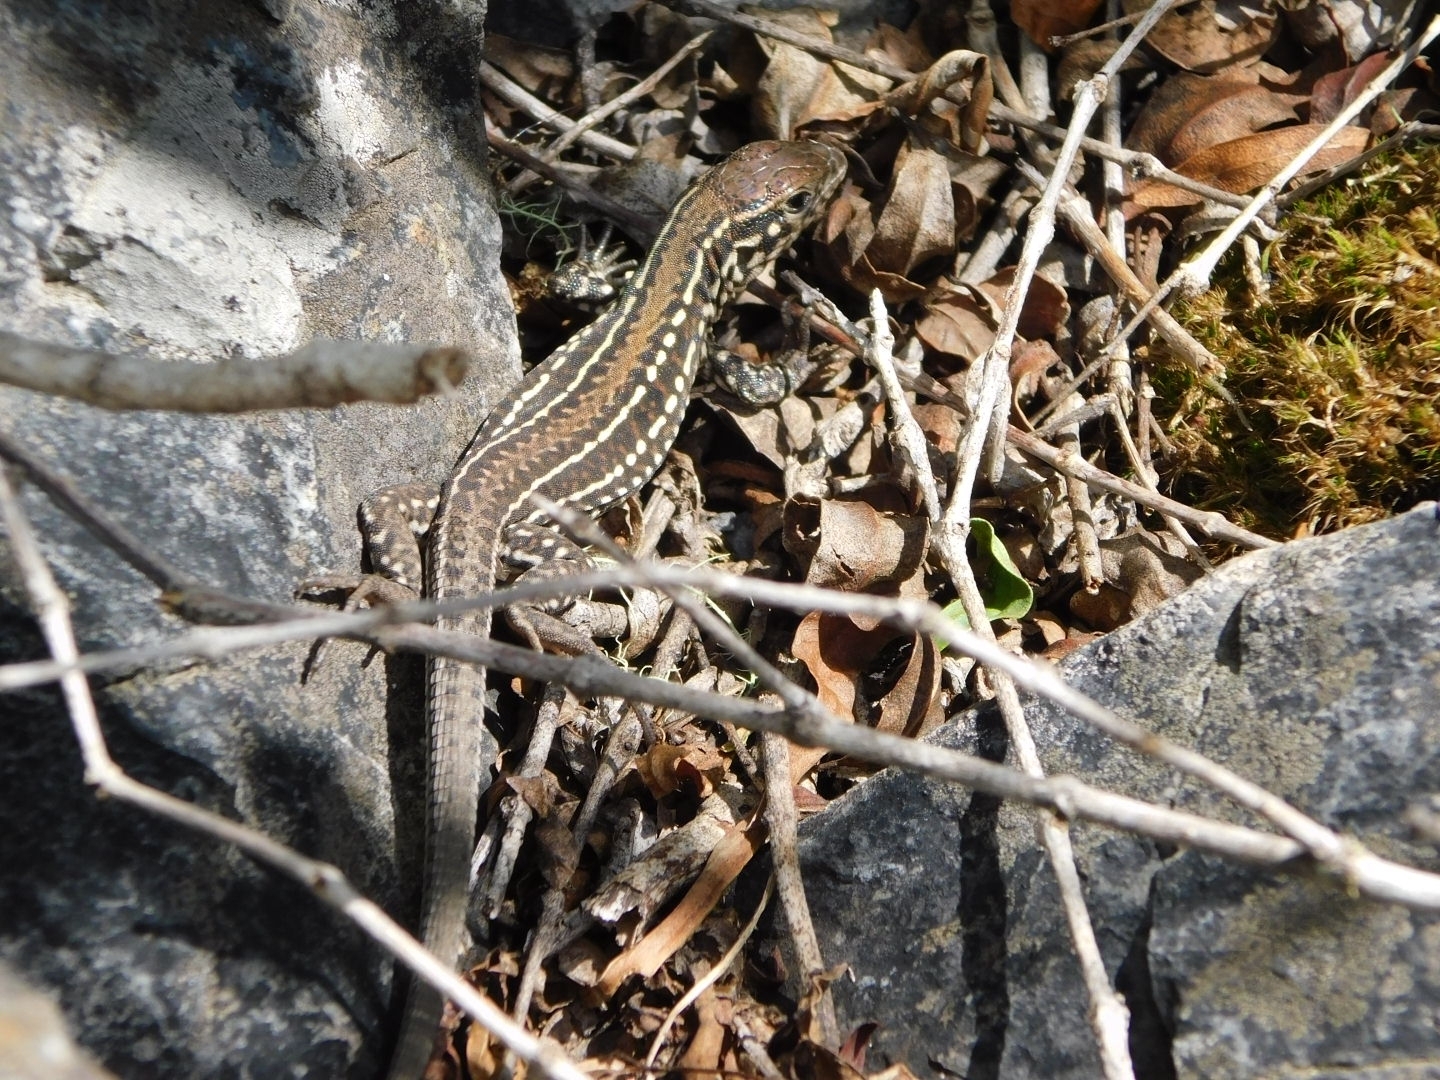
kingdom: Animalia
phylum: Chordata
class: Squamata
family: Teiidae
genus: Contomastix
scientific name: Contomastix lacertoides
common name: Bibron's whiptail
